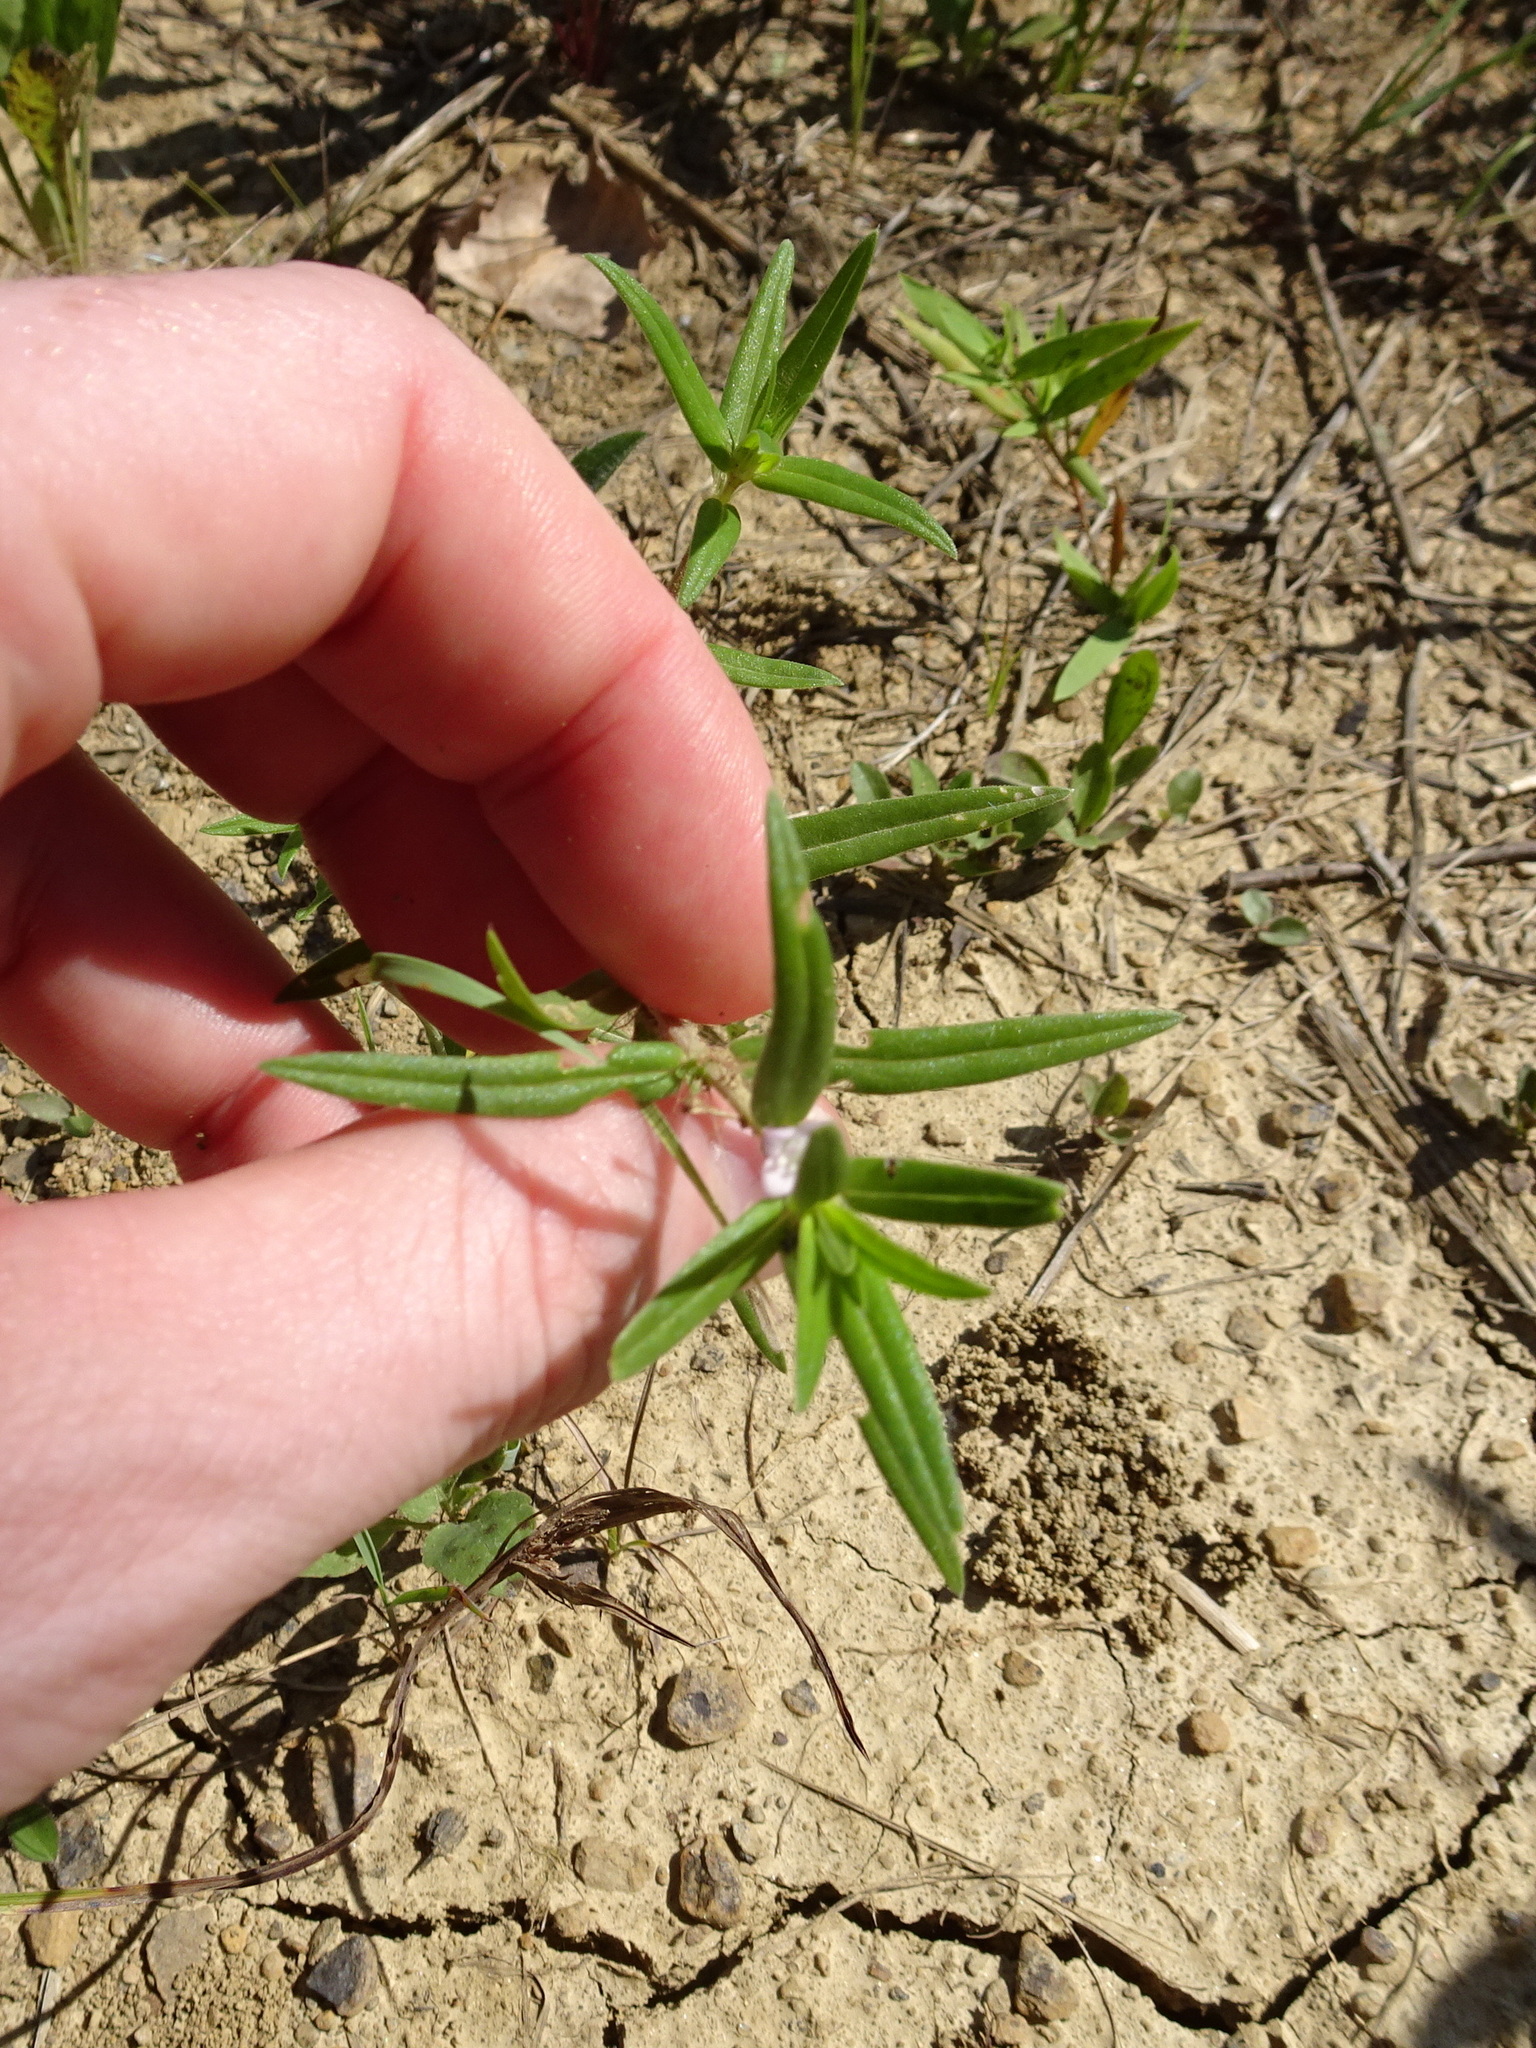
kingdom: Plantae
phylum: Tracheophyta
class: Magnoliopsida
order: Gentianales
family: Rubiaceae
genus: Hexasepalum
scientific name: Hexasepalum teres
